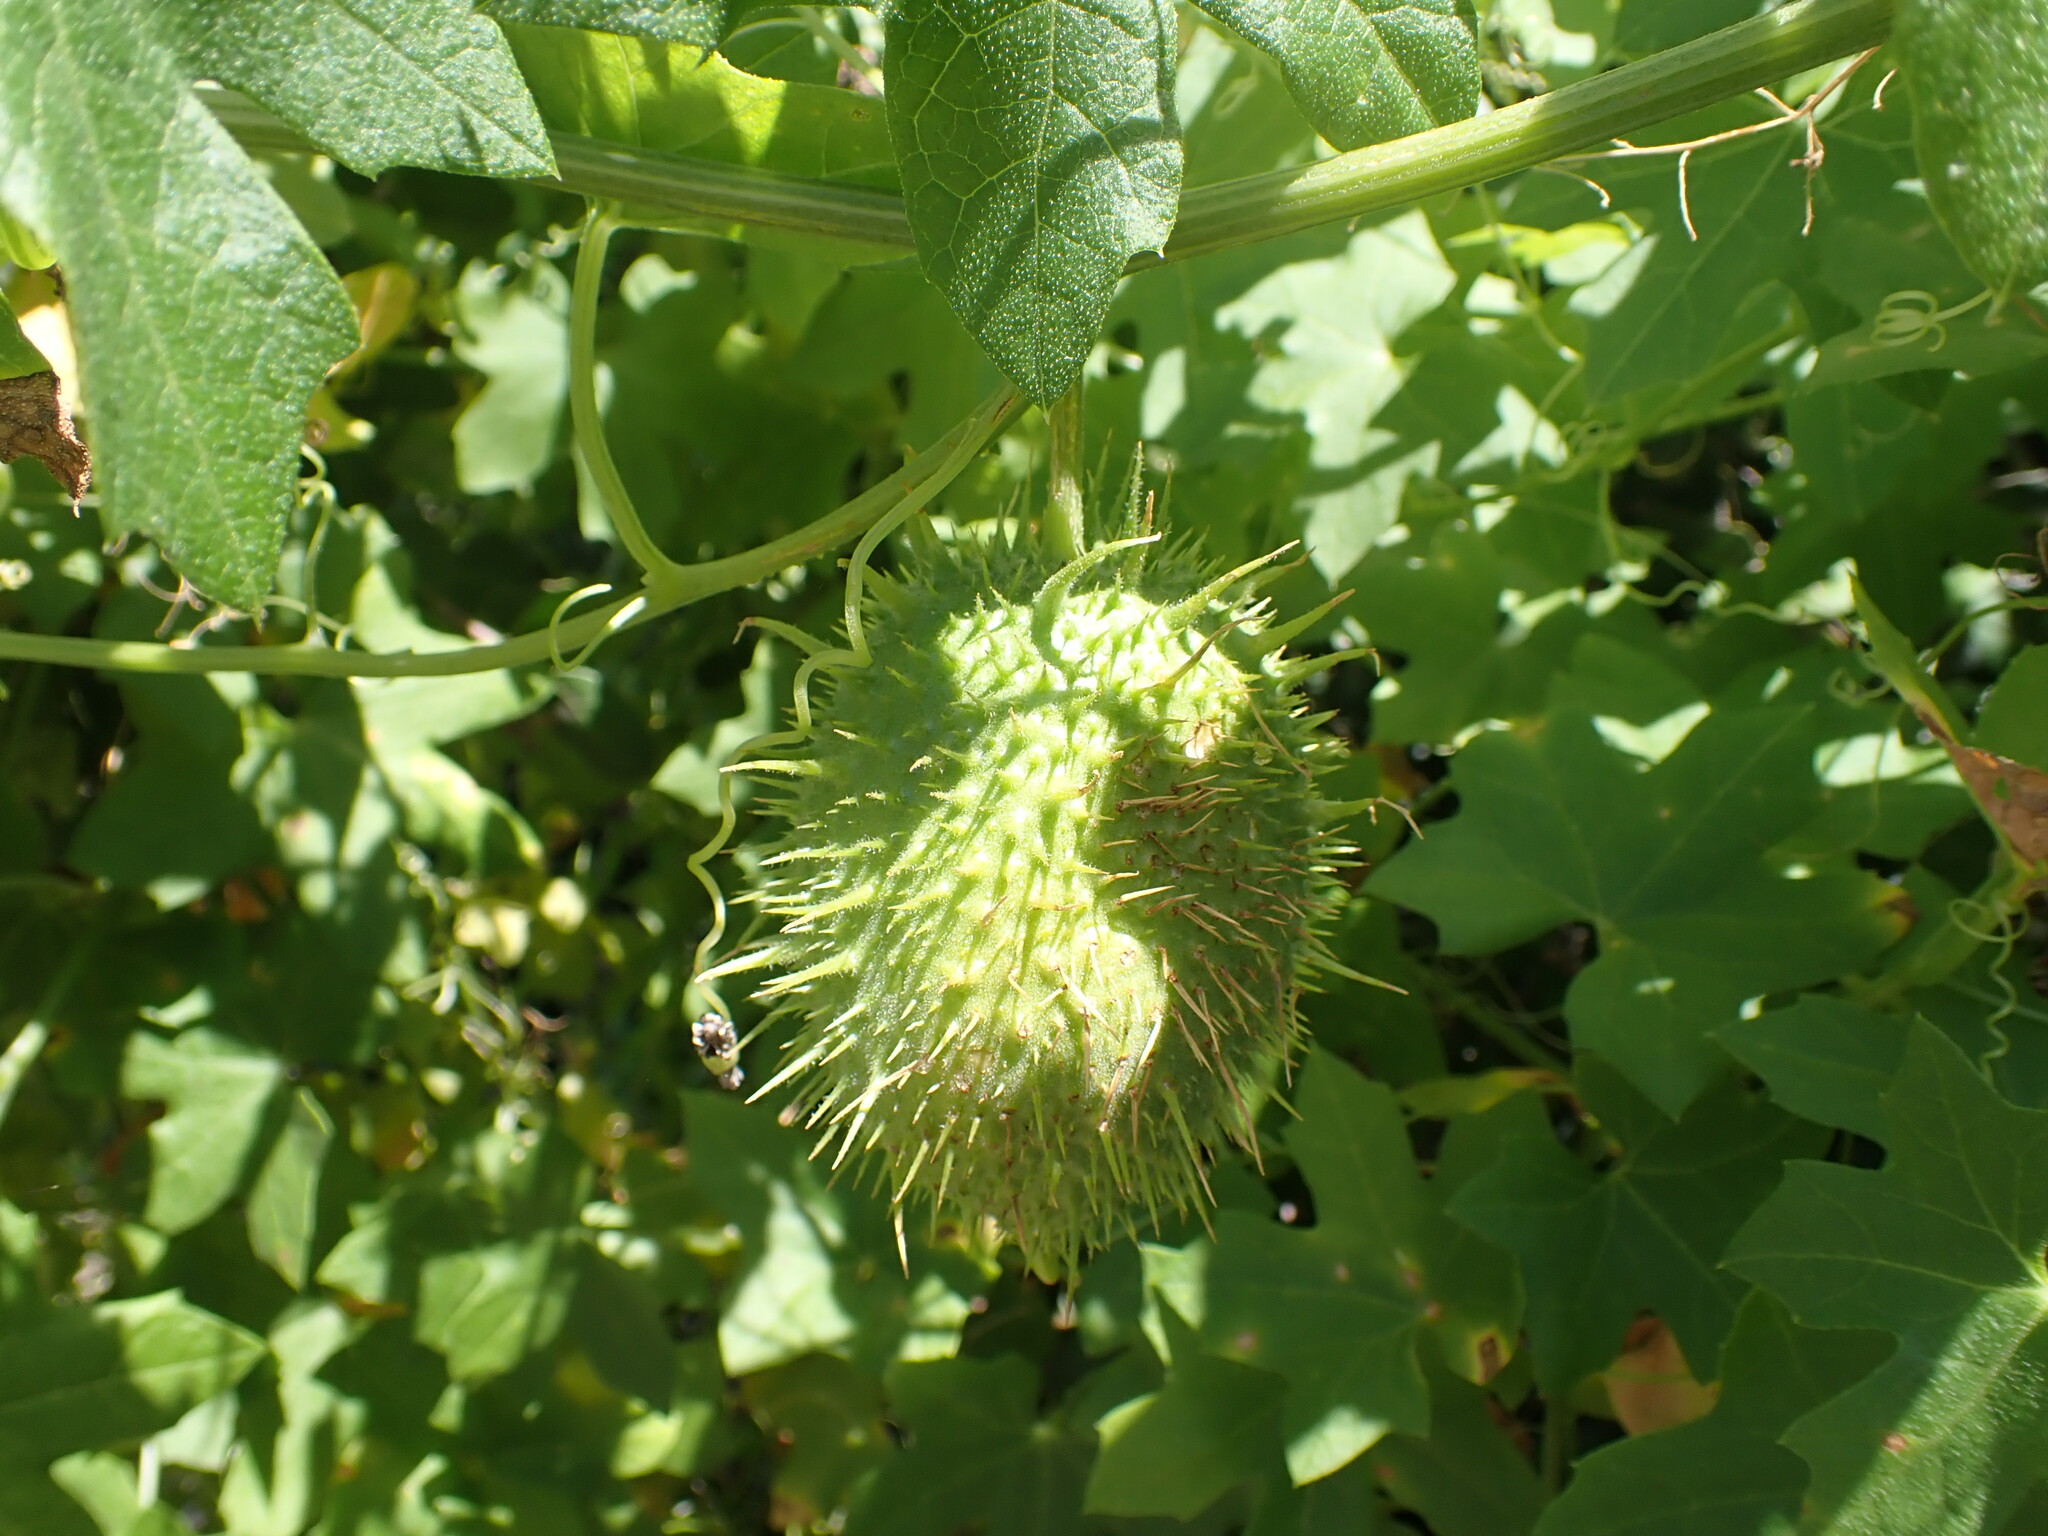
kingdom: Plantae
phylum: Tracheophyta
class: Magnoliopsida
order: Cucurbitales
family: Cucurbitaceae
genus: Marah
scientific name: Marah macrocarpa
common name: Cucamonga manroot
